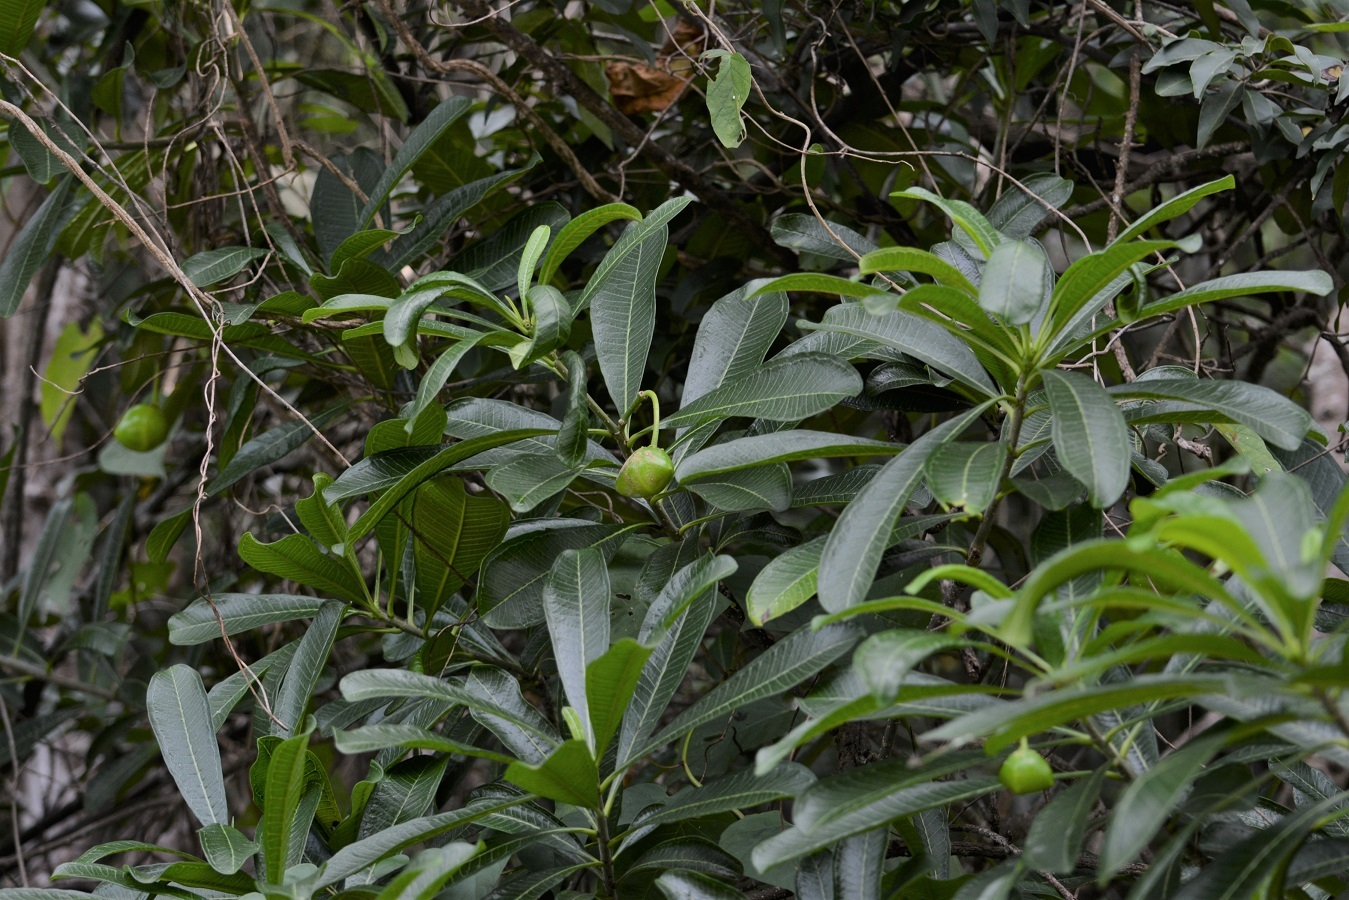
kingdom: Plantae
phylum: Tracheophyta
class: Magnoliopsida
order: Gentianales
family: Apocynaceae
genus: Cascabela
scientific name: Cascabela ovata
